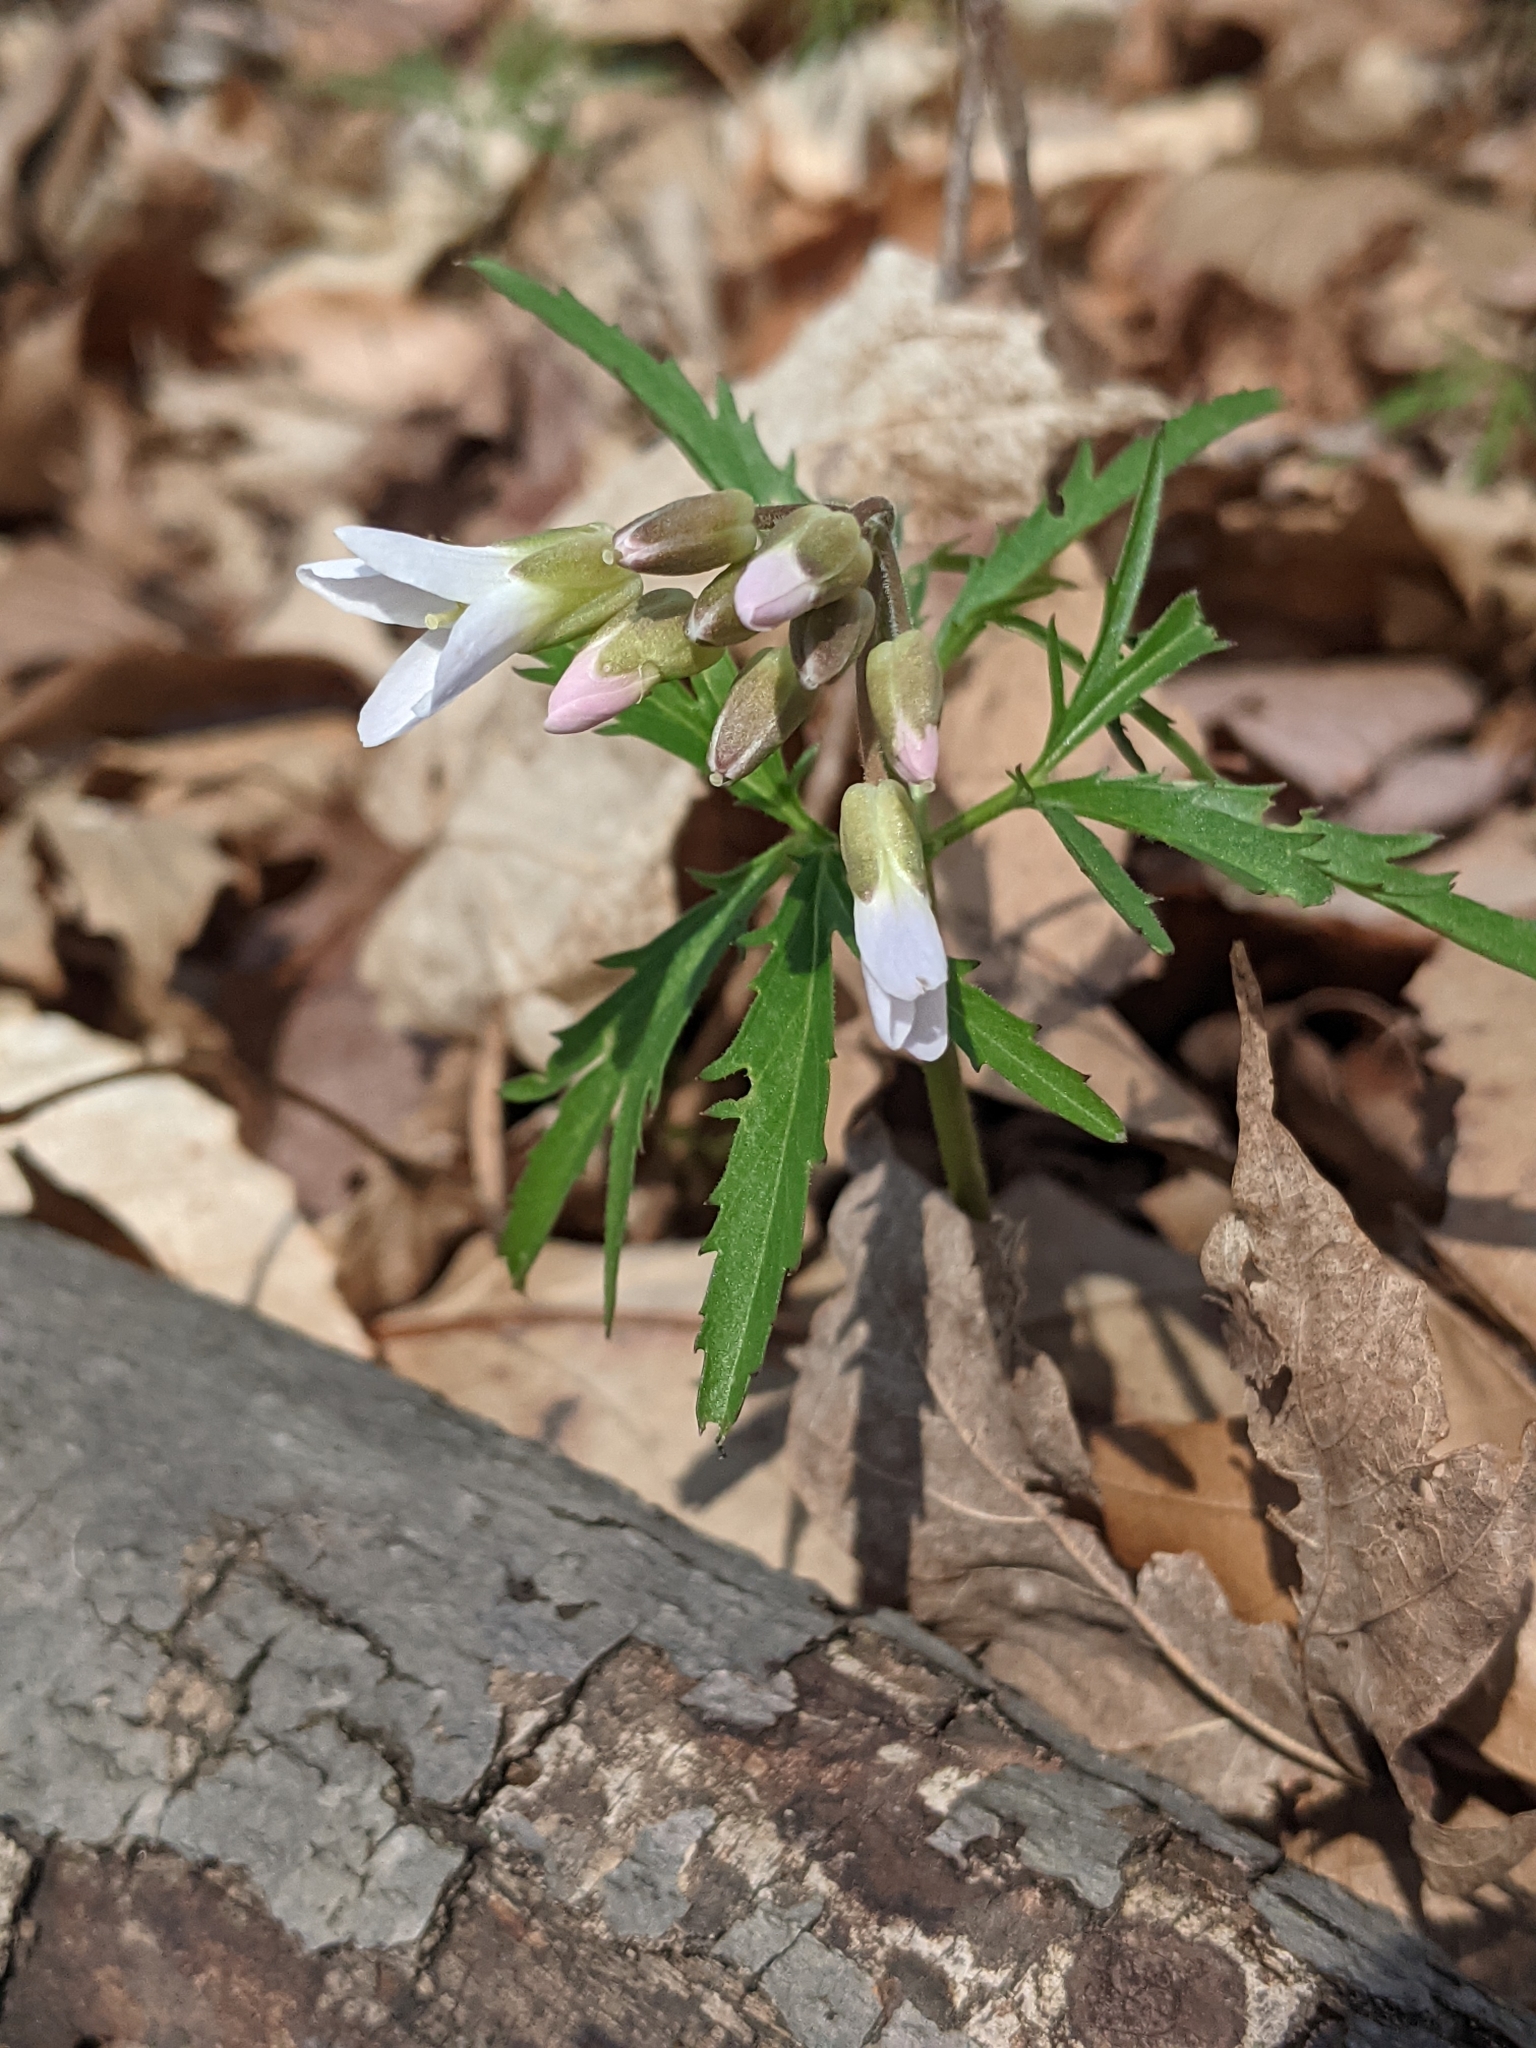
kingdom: Plantae
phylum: Tracheophyta
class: Magnoliopsida
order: Brassicales
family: Brassicaceae
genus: Cardamine
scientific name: Cardamine concatenata
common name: Cut-leaf toothcup
